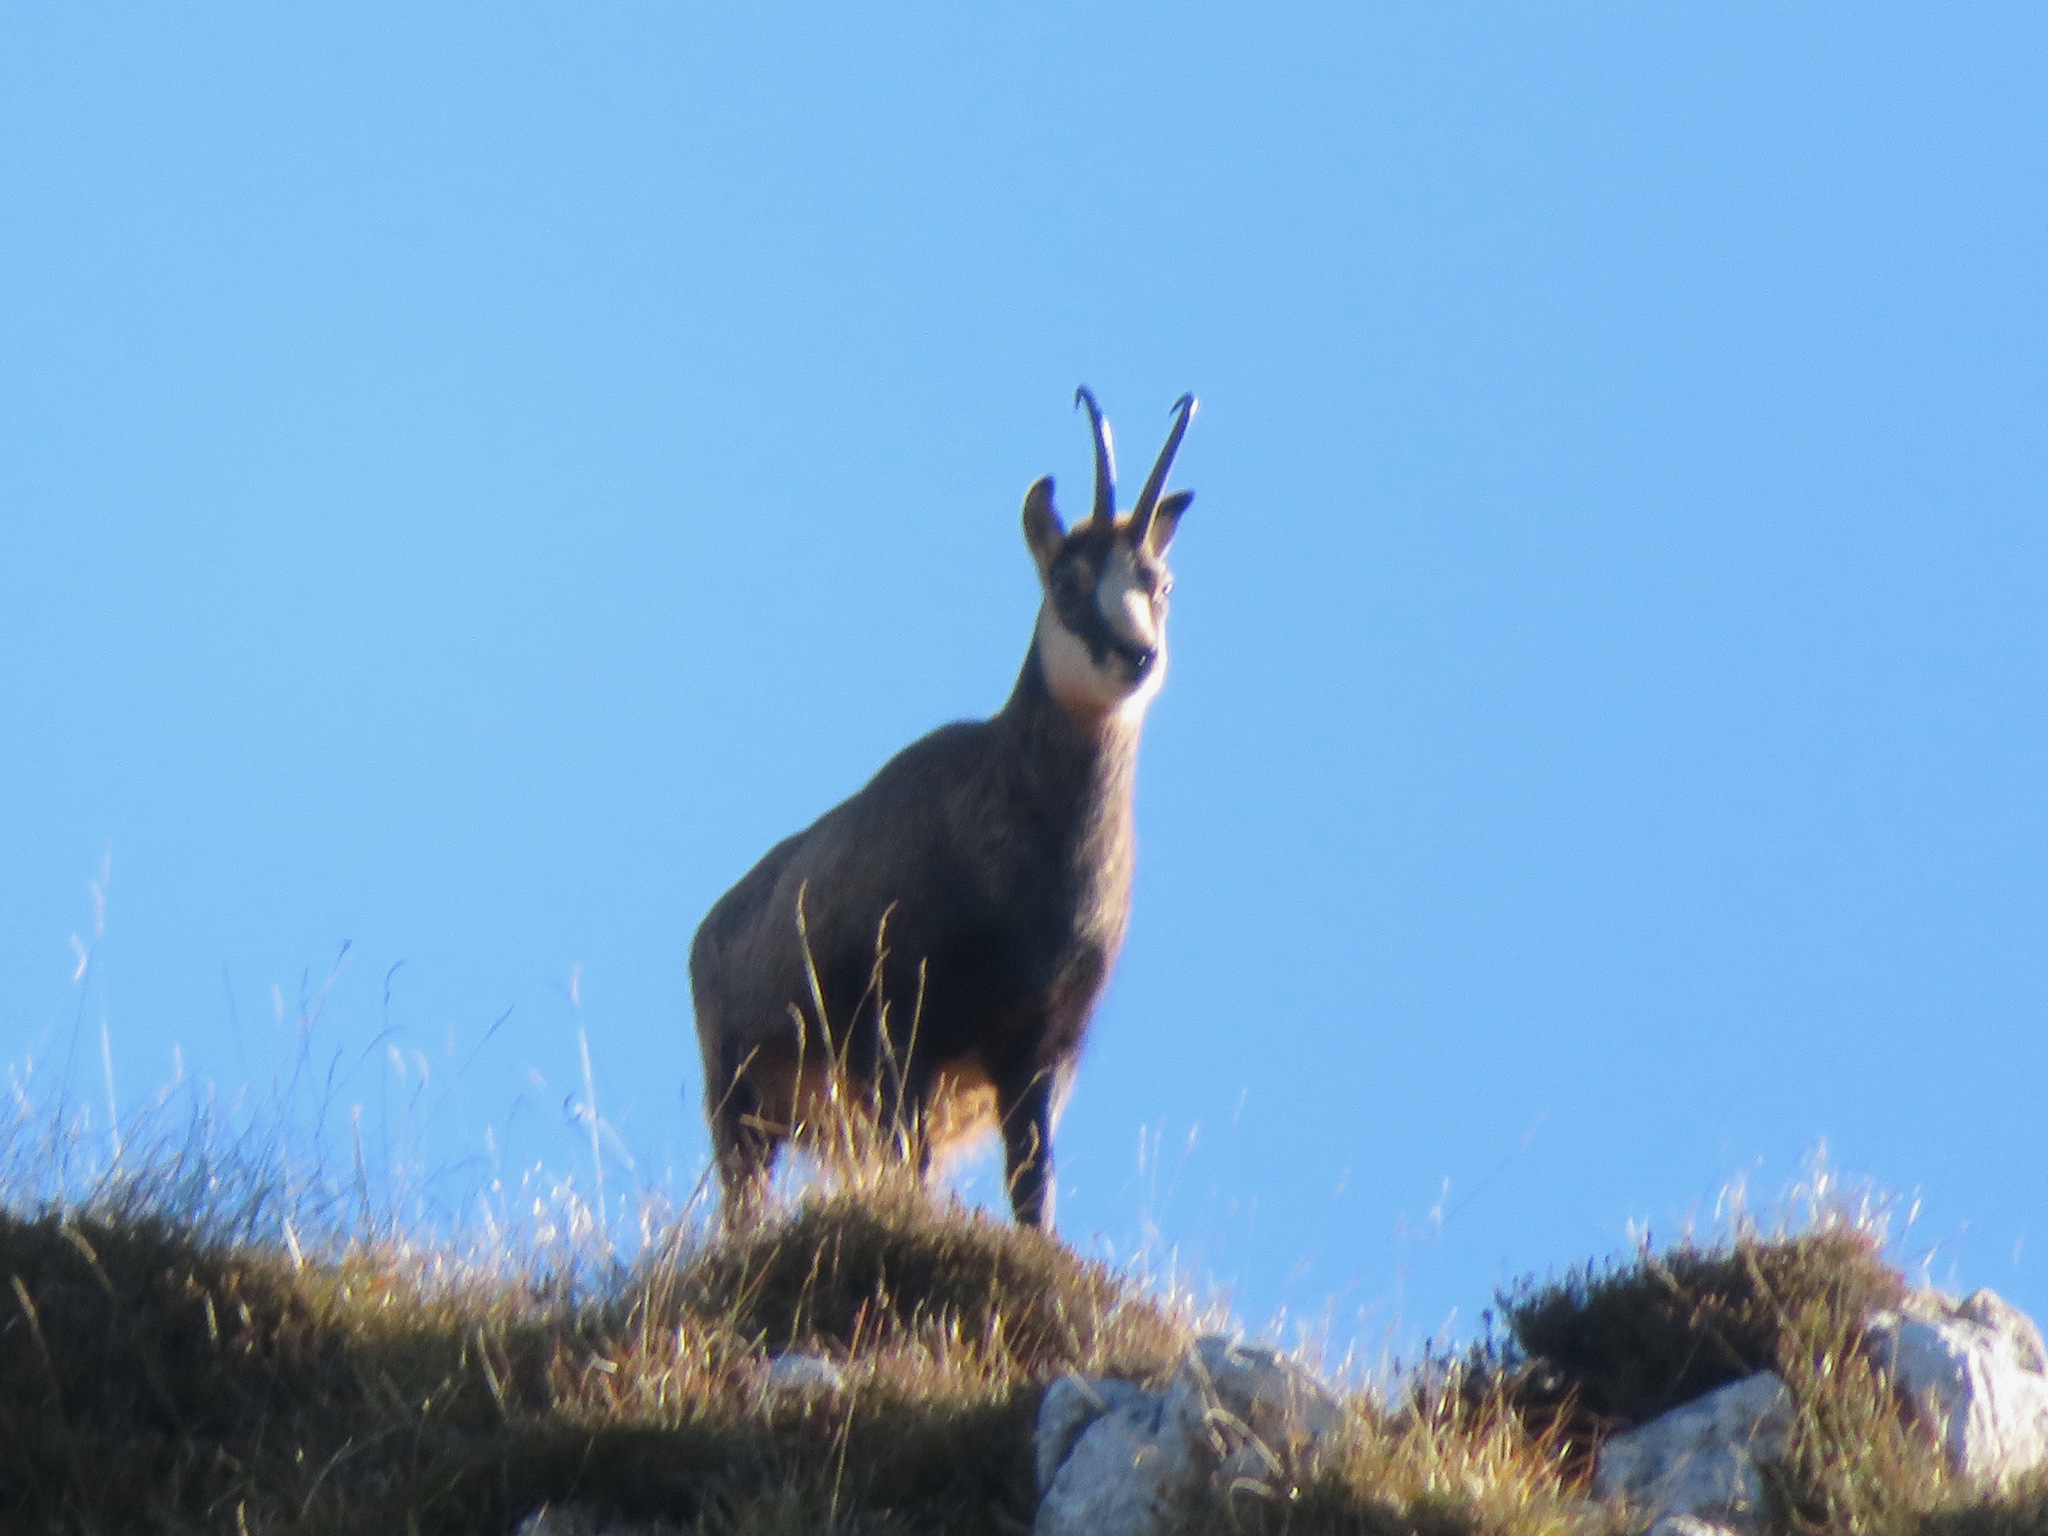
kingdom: Animalia
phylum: Chordata
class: Mammalia
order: Artiodactyla
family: Bovidae
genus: Rupicapra
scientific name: Rupicapra rupicapra
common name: Chamois
